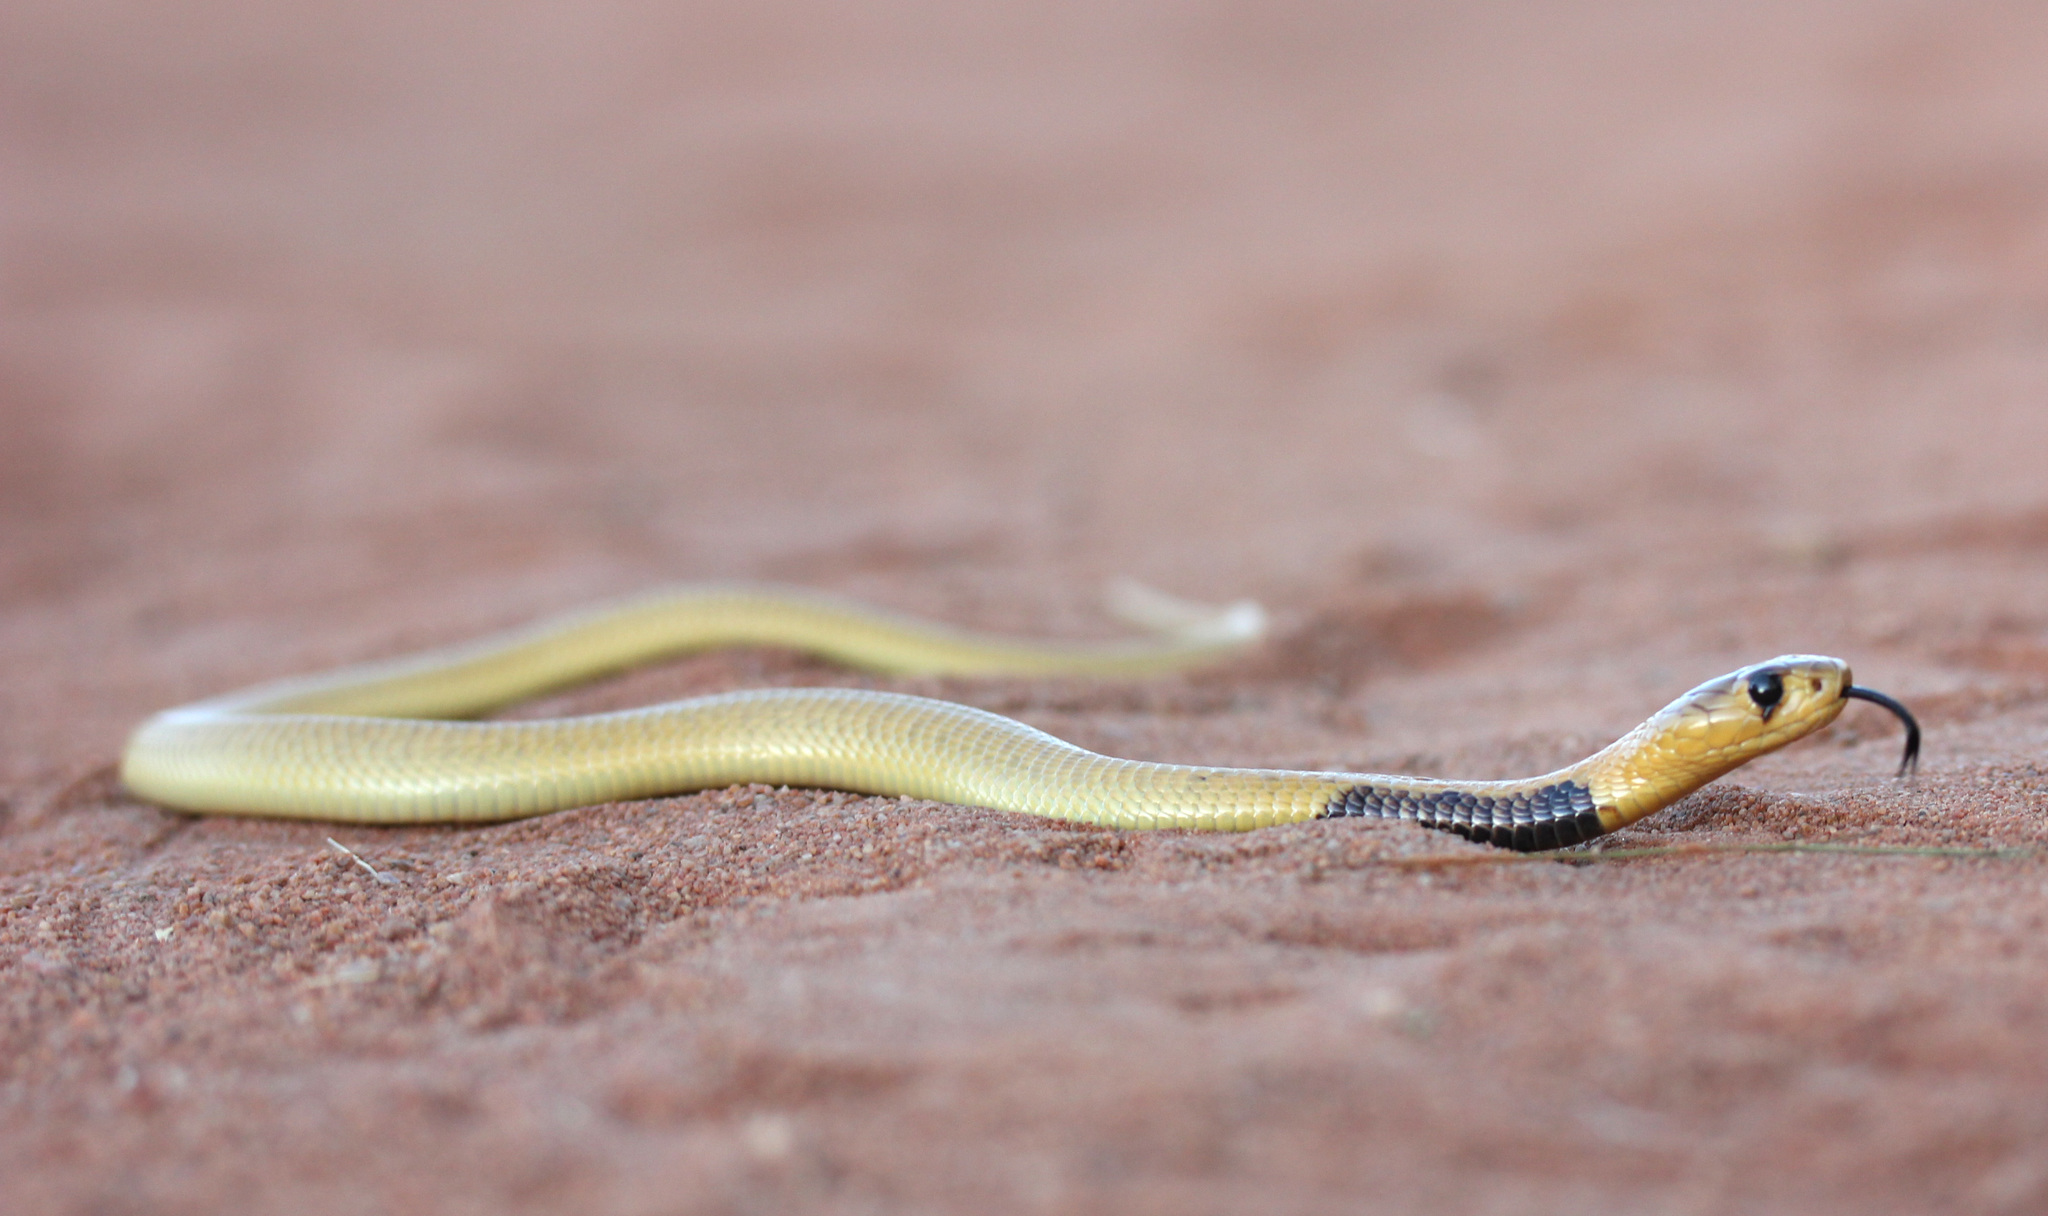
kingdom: Animalia
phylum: Chordata
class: Squamata
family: Elapidae
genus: Naja
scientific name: Naja nivea
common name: Cape cobra
